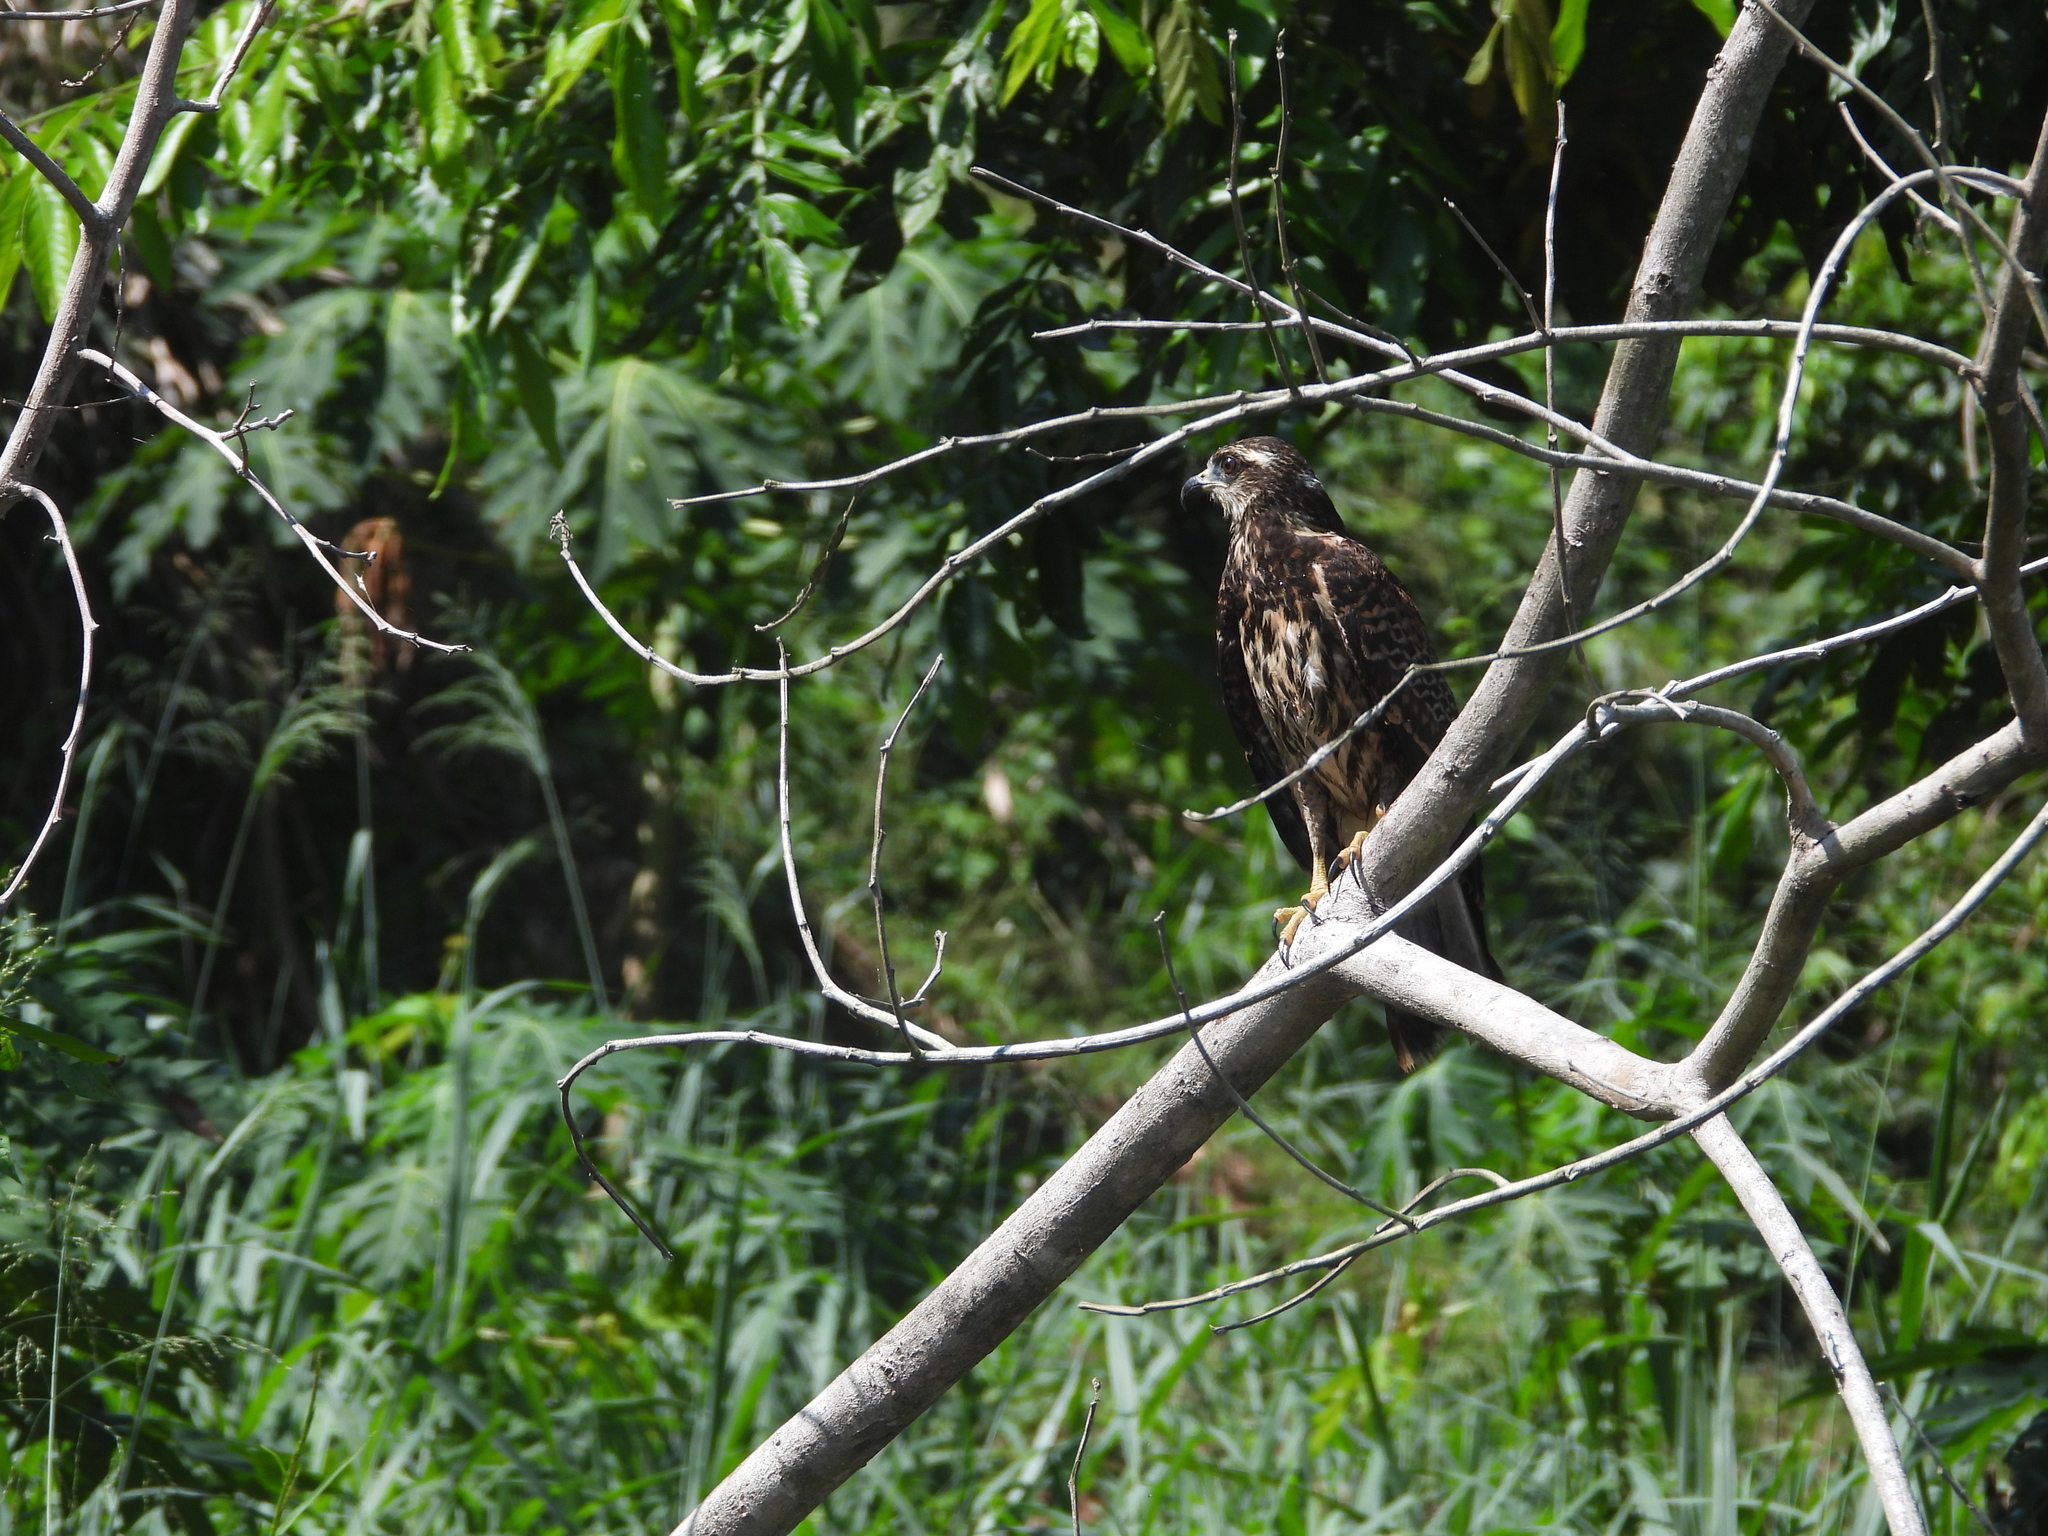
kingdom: Animalia
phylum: Chordata
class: Aves
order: Accipitriformes
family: Accipitridae
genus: Rostrhamus
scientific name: Rostrhamus sociabilis
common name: Snail kite
